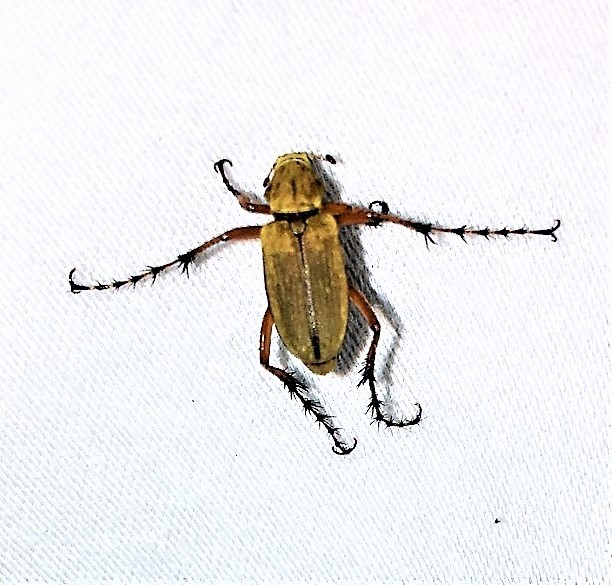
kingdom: Animalia
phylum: Arthropoda
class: Insecta
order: Coleoptera
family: Scarabaeidae
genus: Macrodactylus
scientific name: Macrodactylus subspinosus
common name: American rose chafer
